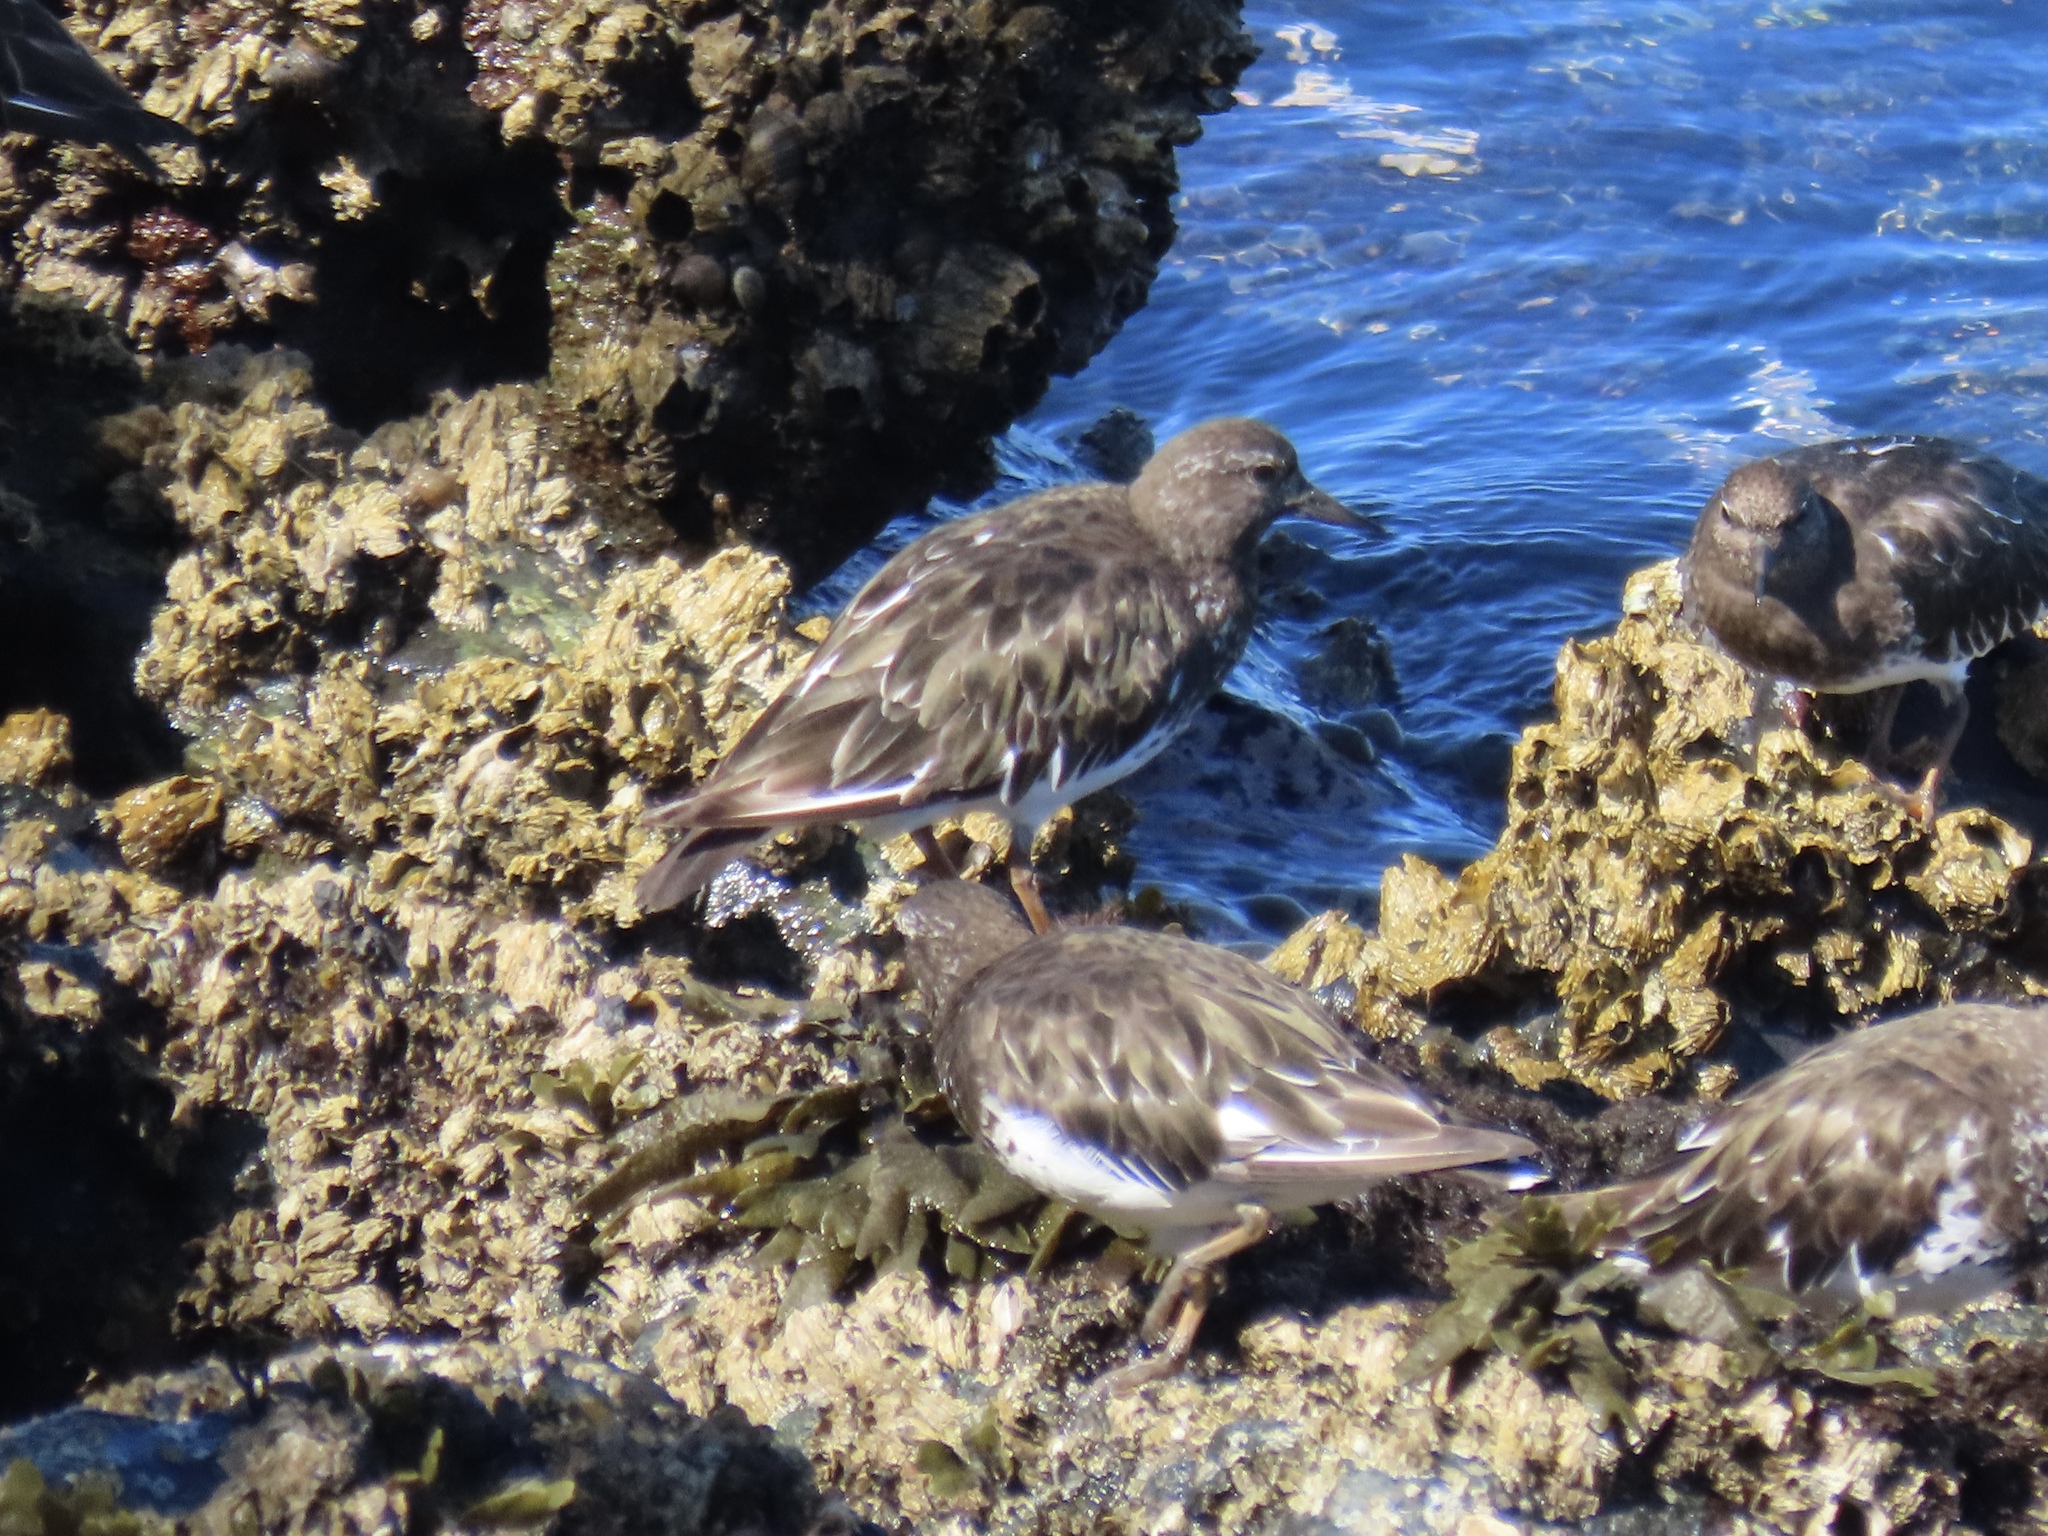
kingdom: Animalia
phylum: Chordata
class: Aves
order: Charadriiformes
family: Scolopacidae
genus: Arenaria
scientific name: Arenaria melanocephala
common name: Black turnstone
